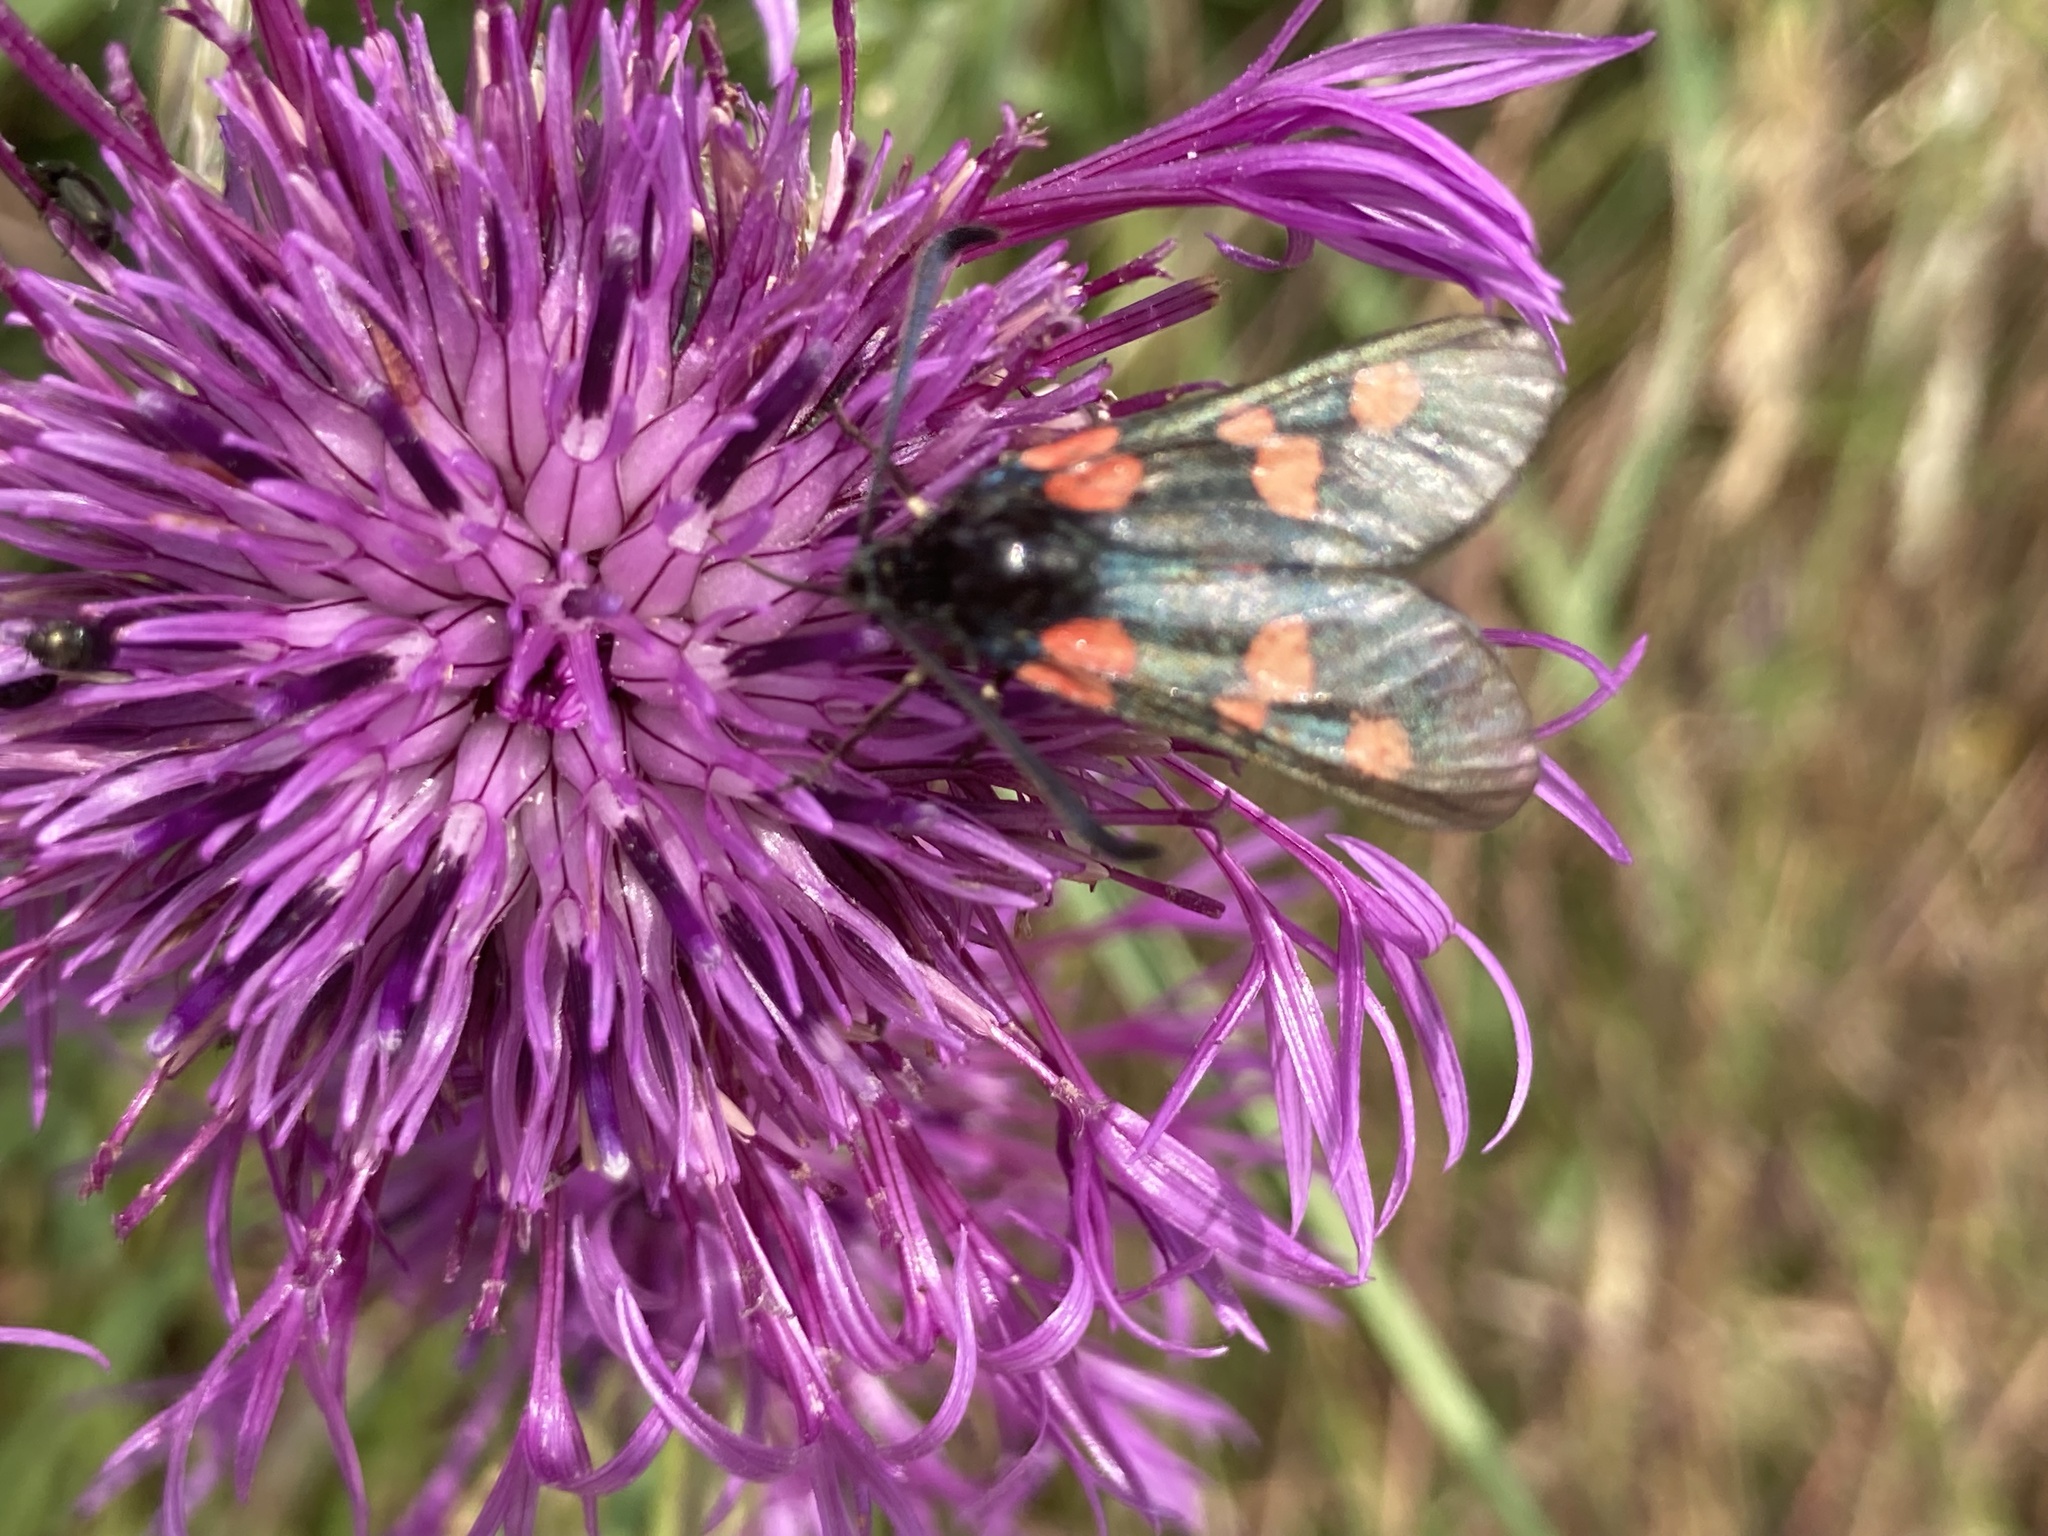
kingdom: Animalia
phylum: Arthropoda
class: Insecta
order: Lepidoptera
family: Zygaenidae
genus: Zygaena
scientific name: Zygaena
